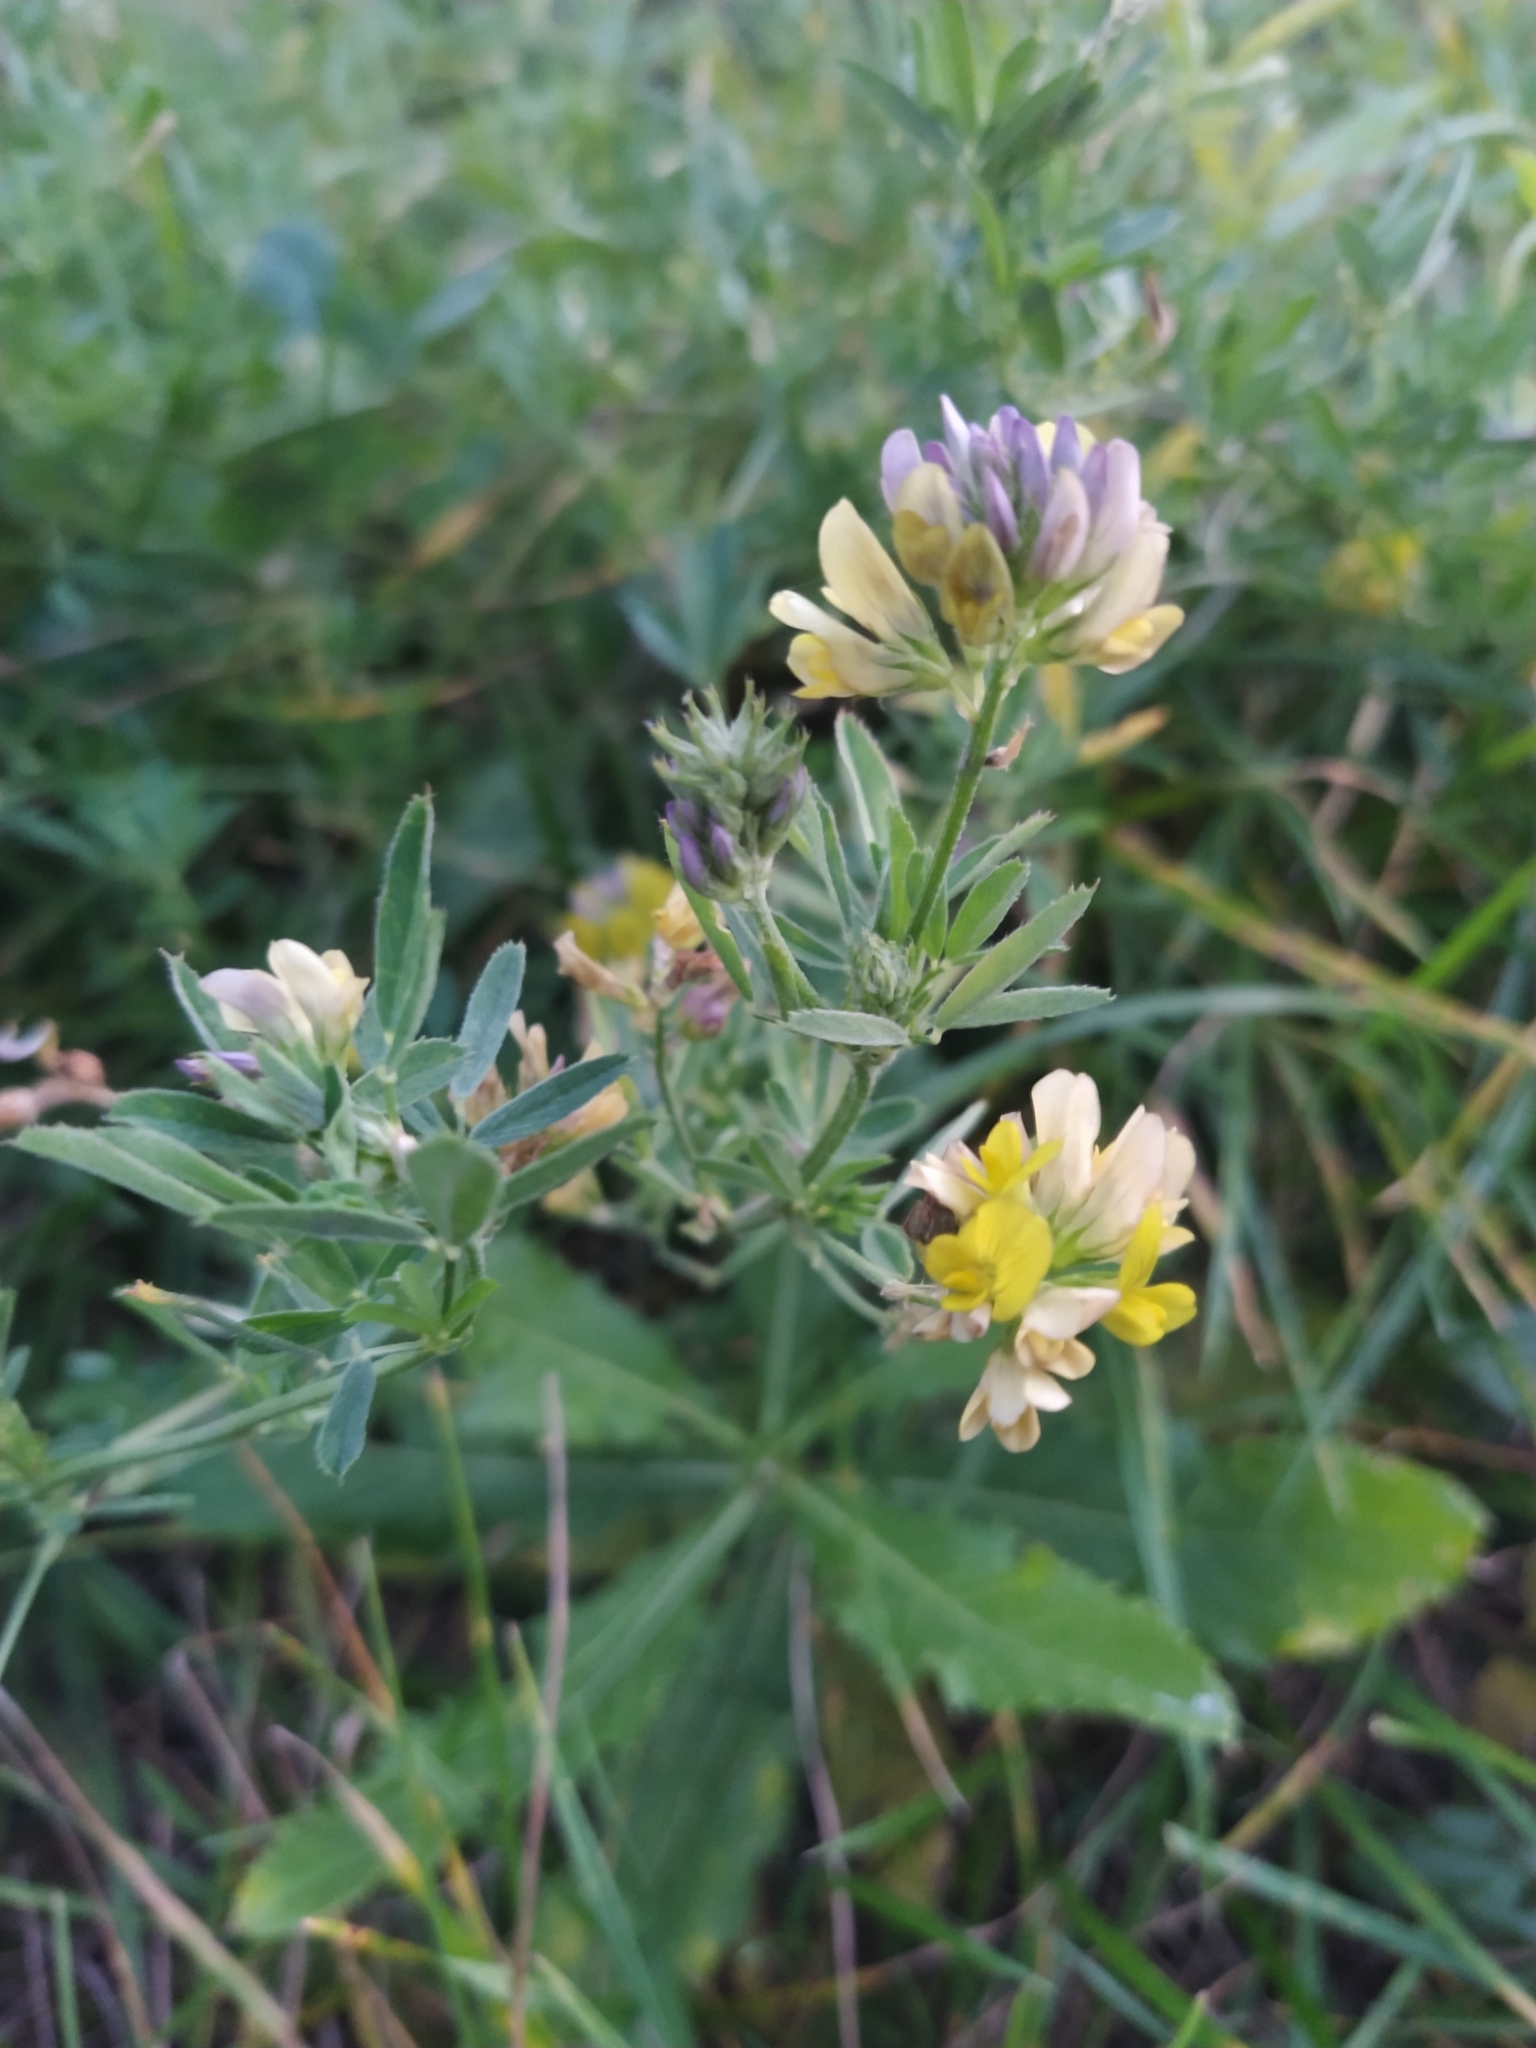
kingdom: Plantae
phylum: Tracheophyta
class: Magnoliopsida
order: Fabales
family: Fabaceae
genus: Medicago
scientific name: Medicago varia
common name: Sand lucerne
